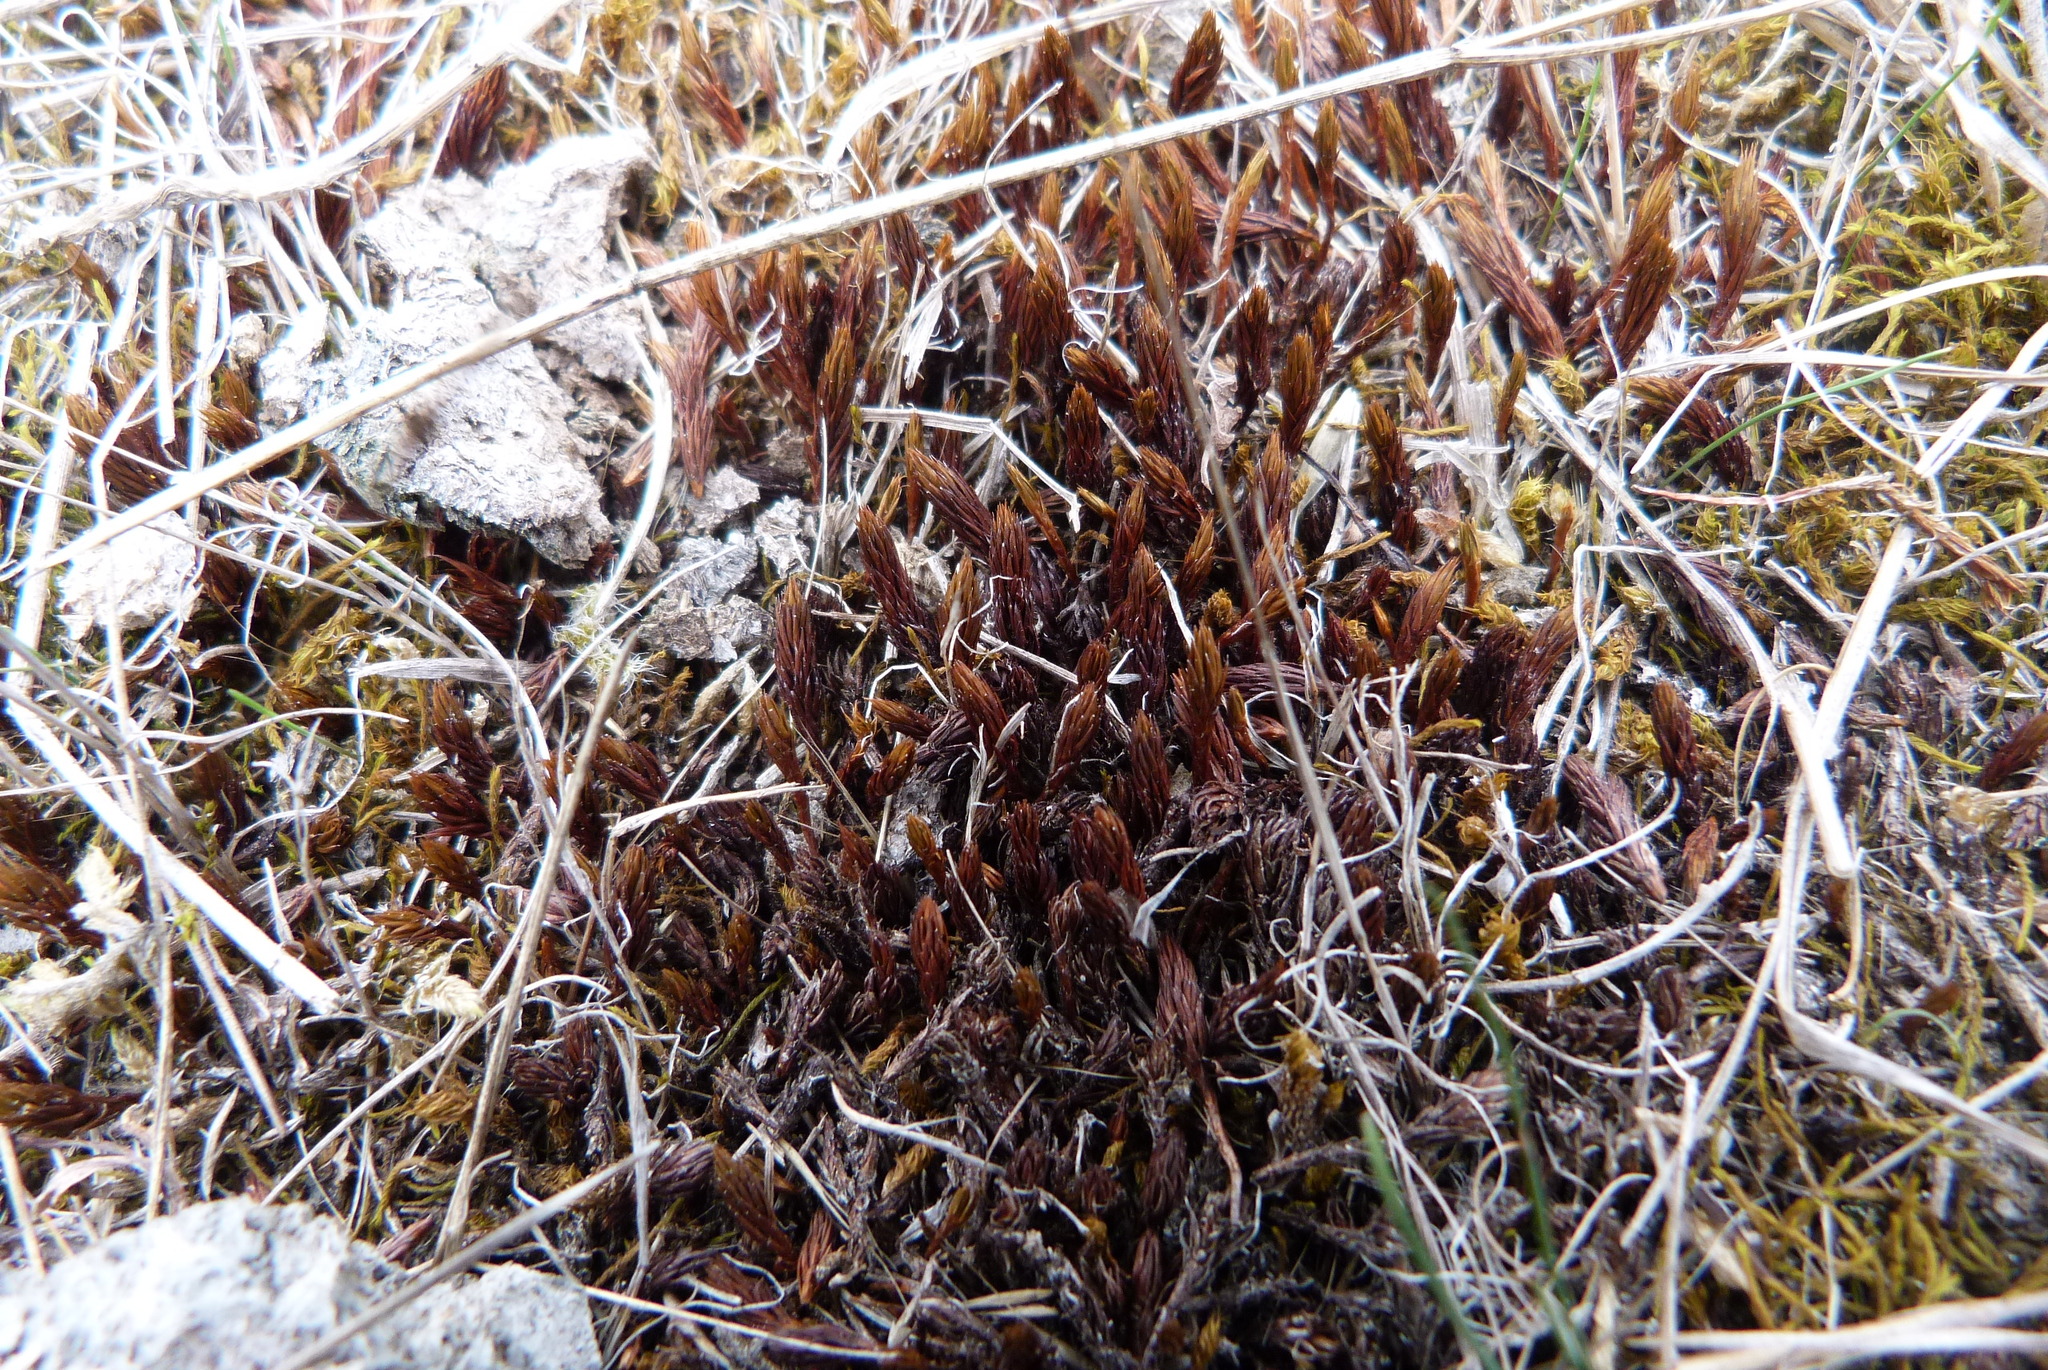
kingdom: Plantae
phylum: Bryophyta
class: Polytrichopsida
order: Polytrichales
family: Polytrichaceae
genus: Polytrichum
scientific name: Polytrichum juniperinum
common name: Juniper haircap moss
